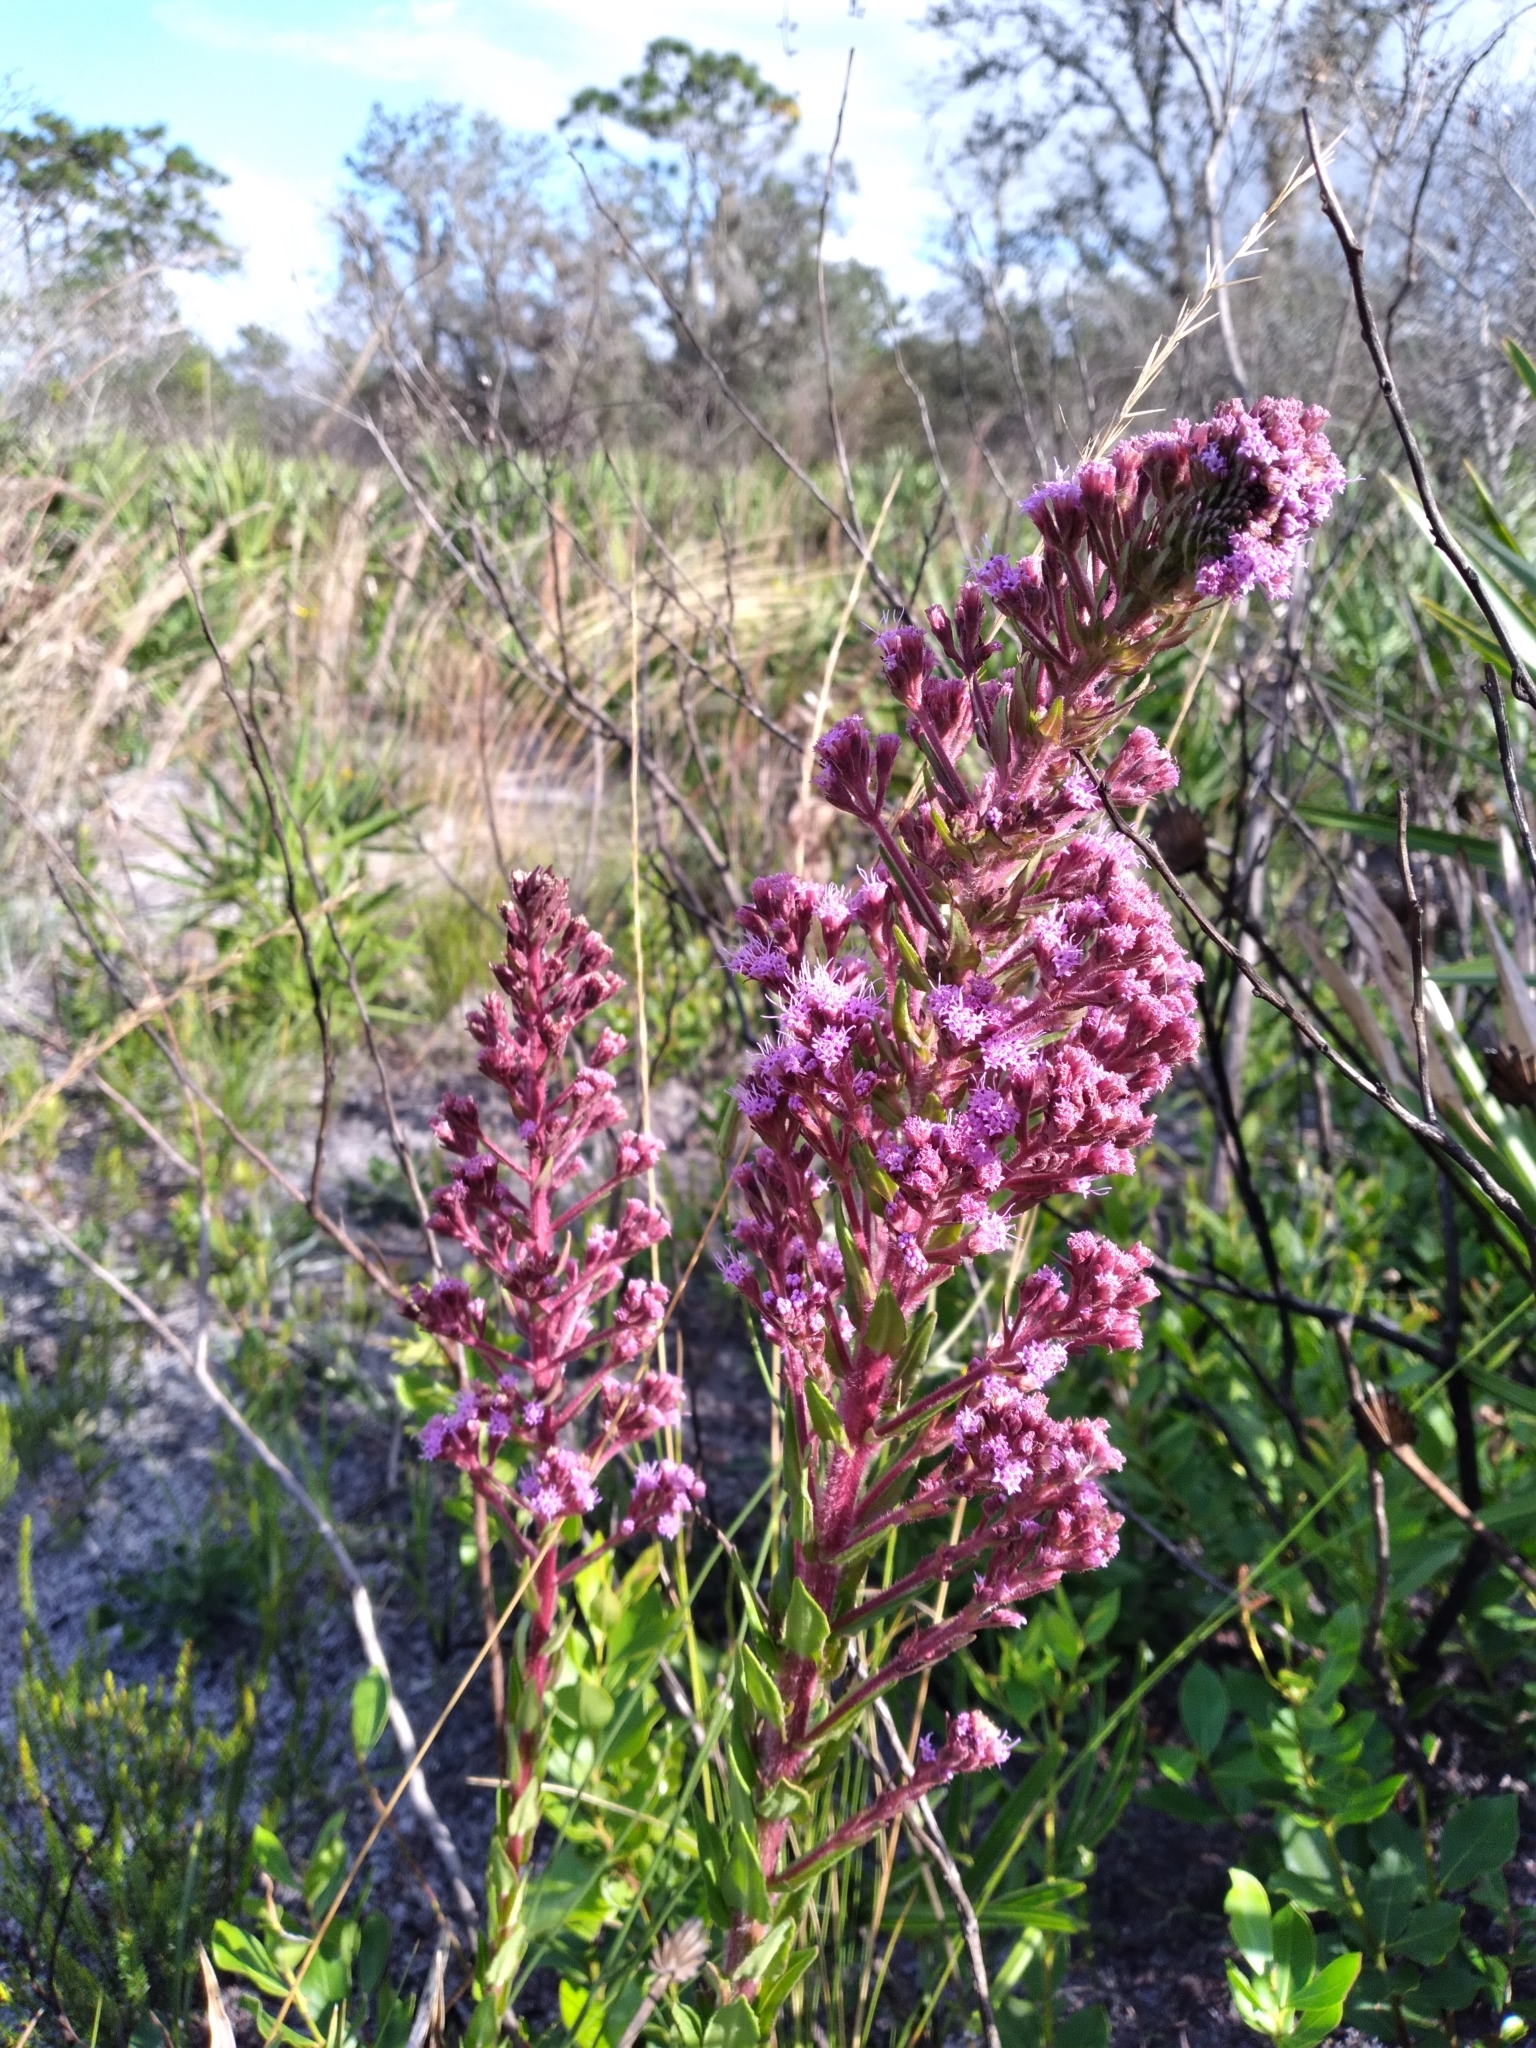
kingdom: Plantae
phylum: Tracheophyta
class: Magnoliopsida
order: Asterales
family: Asteraceae
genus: Carphephorus
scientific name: Carphephorus paniculatus
